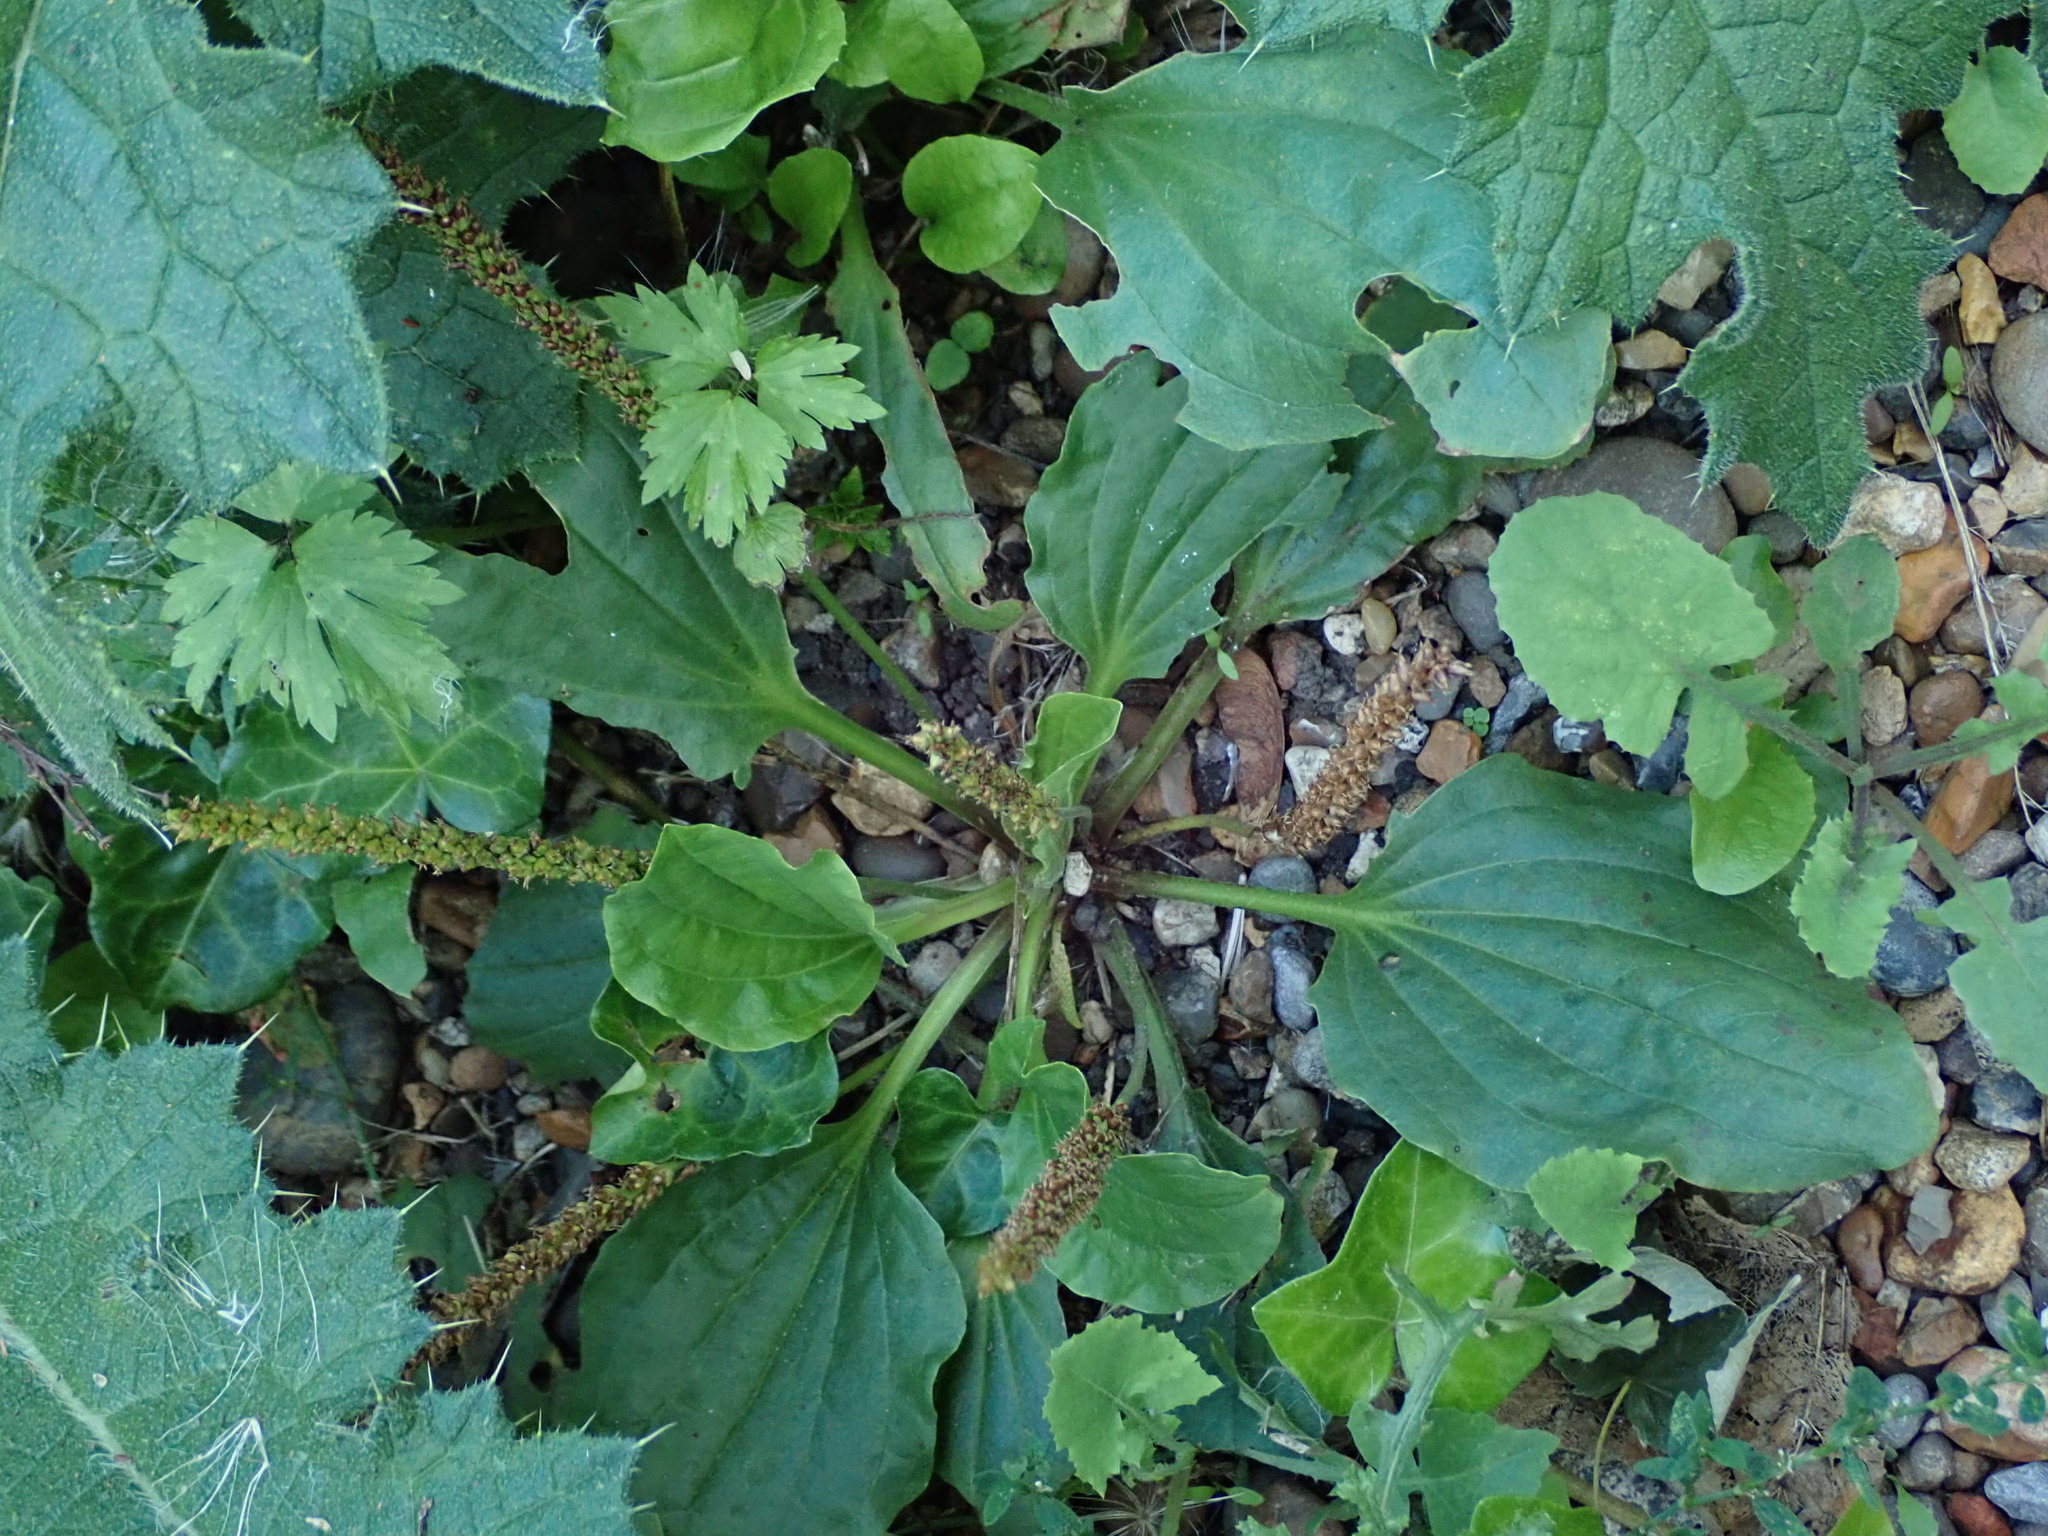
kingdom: Plantae
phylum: Tracheophyta
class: Magnoliopsida
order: Lamiales
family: Plantaginaceae
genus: Plantago
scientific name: Plantago major
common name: Common plantain
